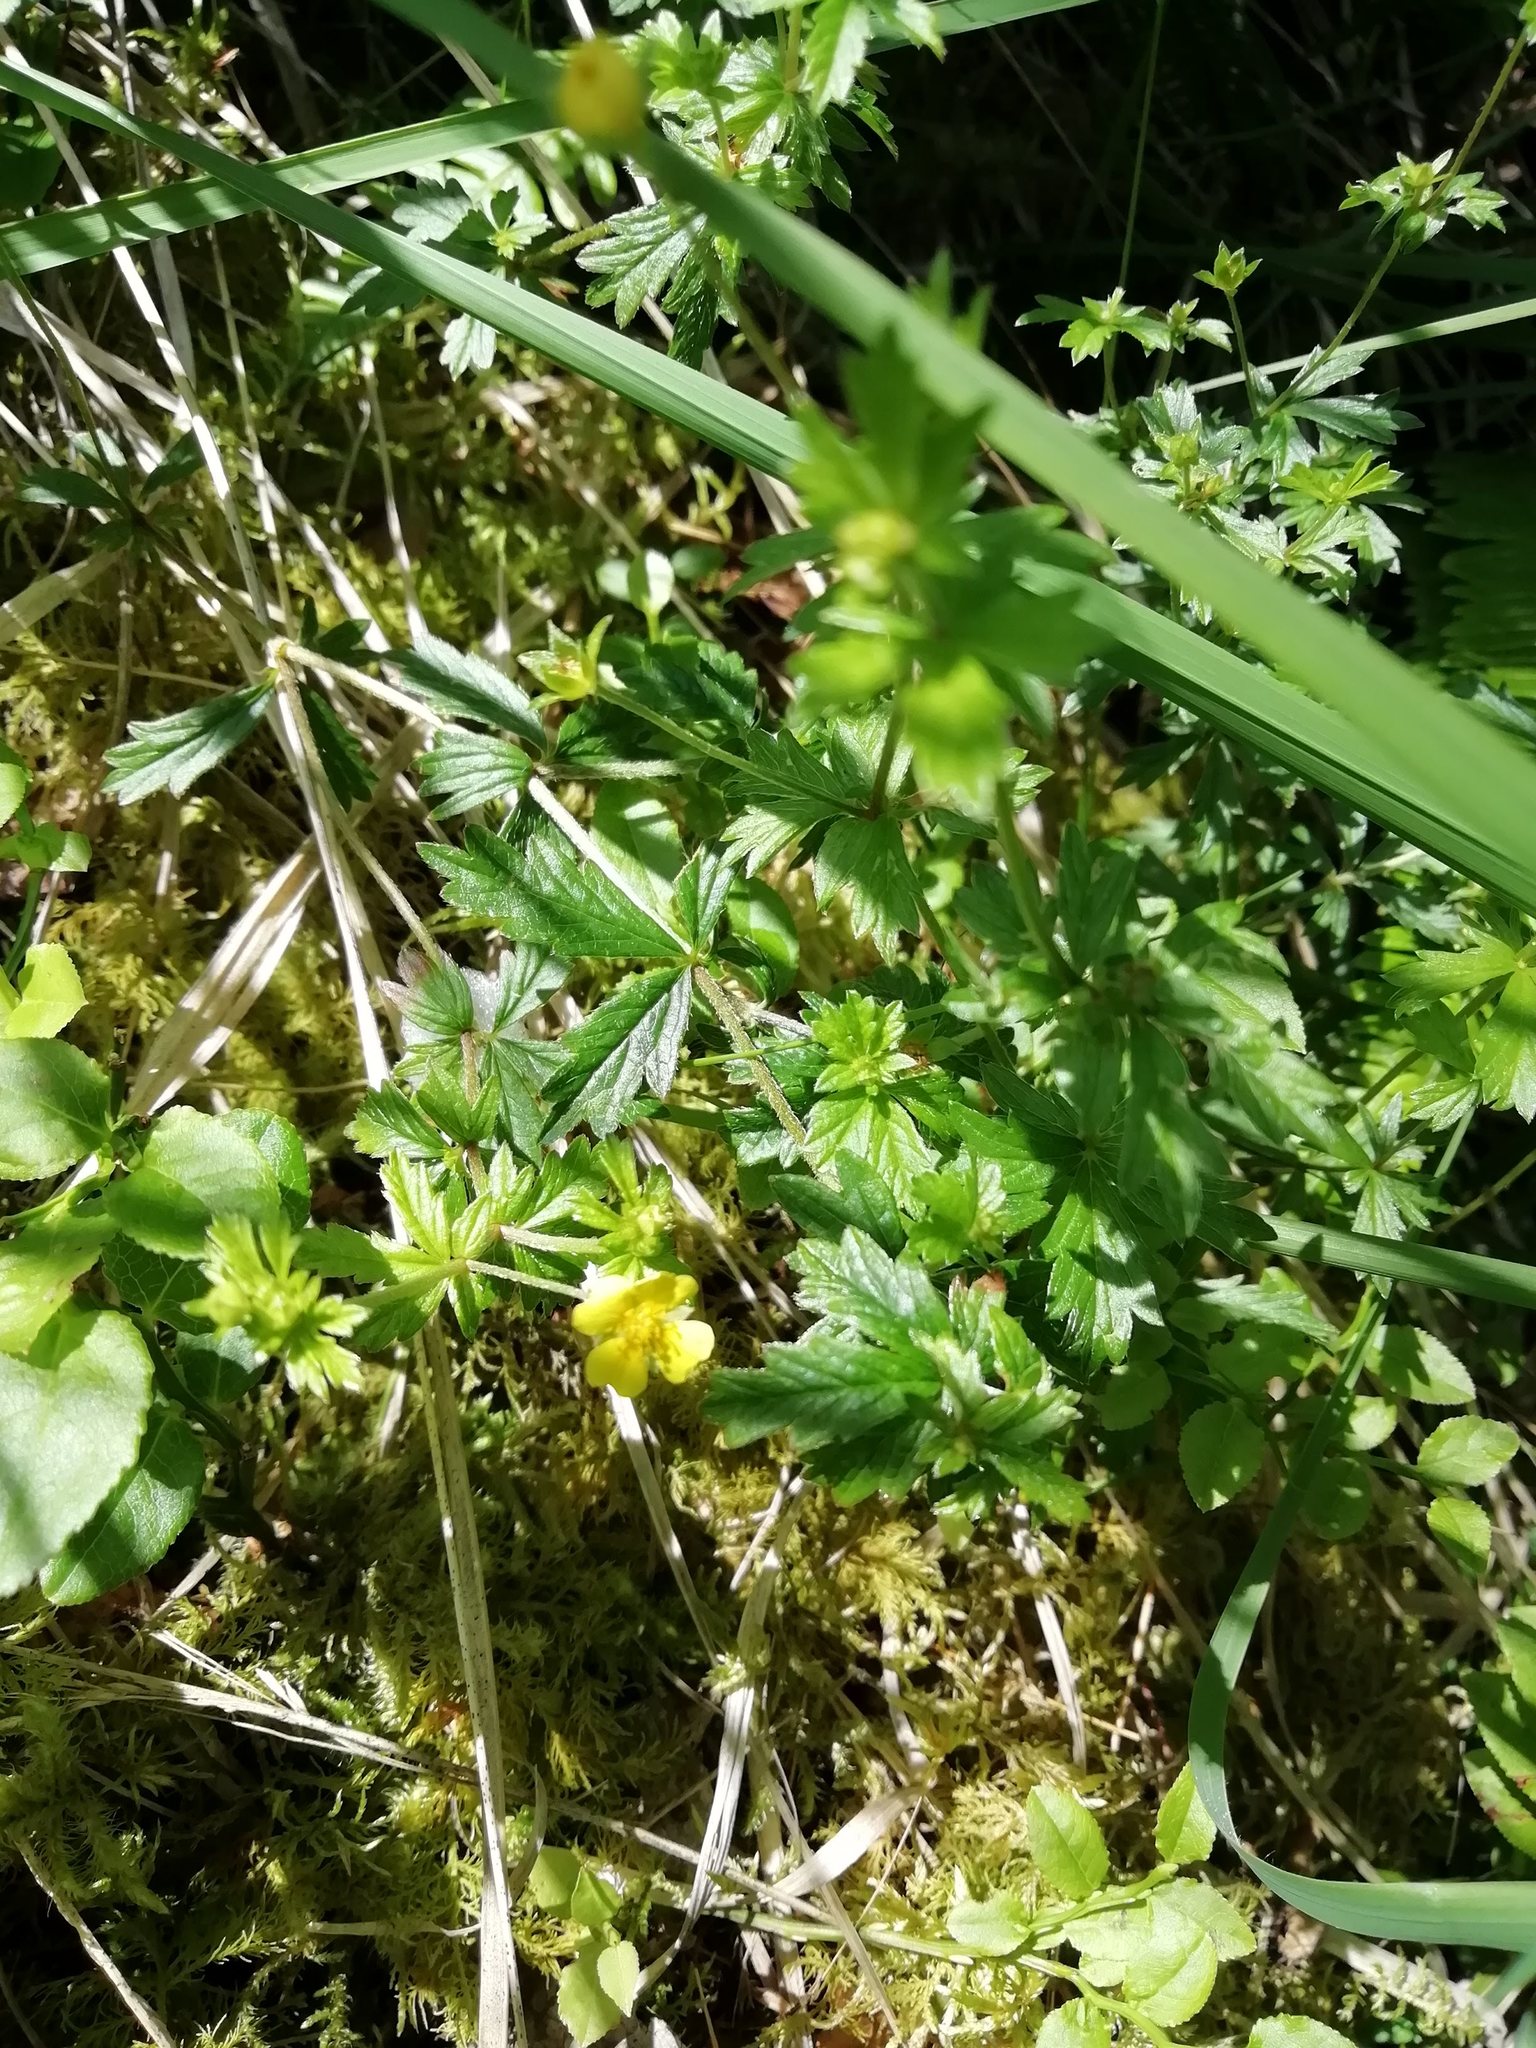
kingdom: Plantae
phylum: Tracheophyta
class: Magnoliopsida
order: Rosales
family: Rosaceae
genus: Potentilla
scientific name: Potentilla erecta
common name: Tormentil
